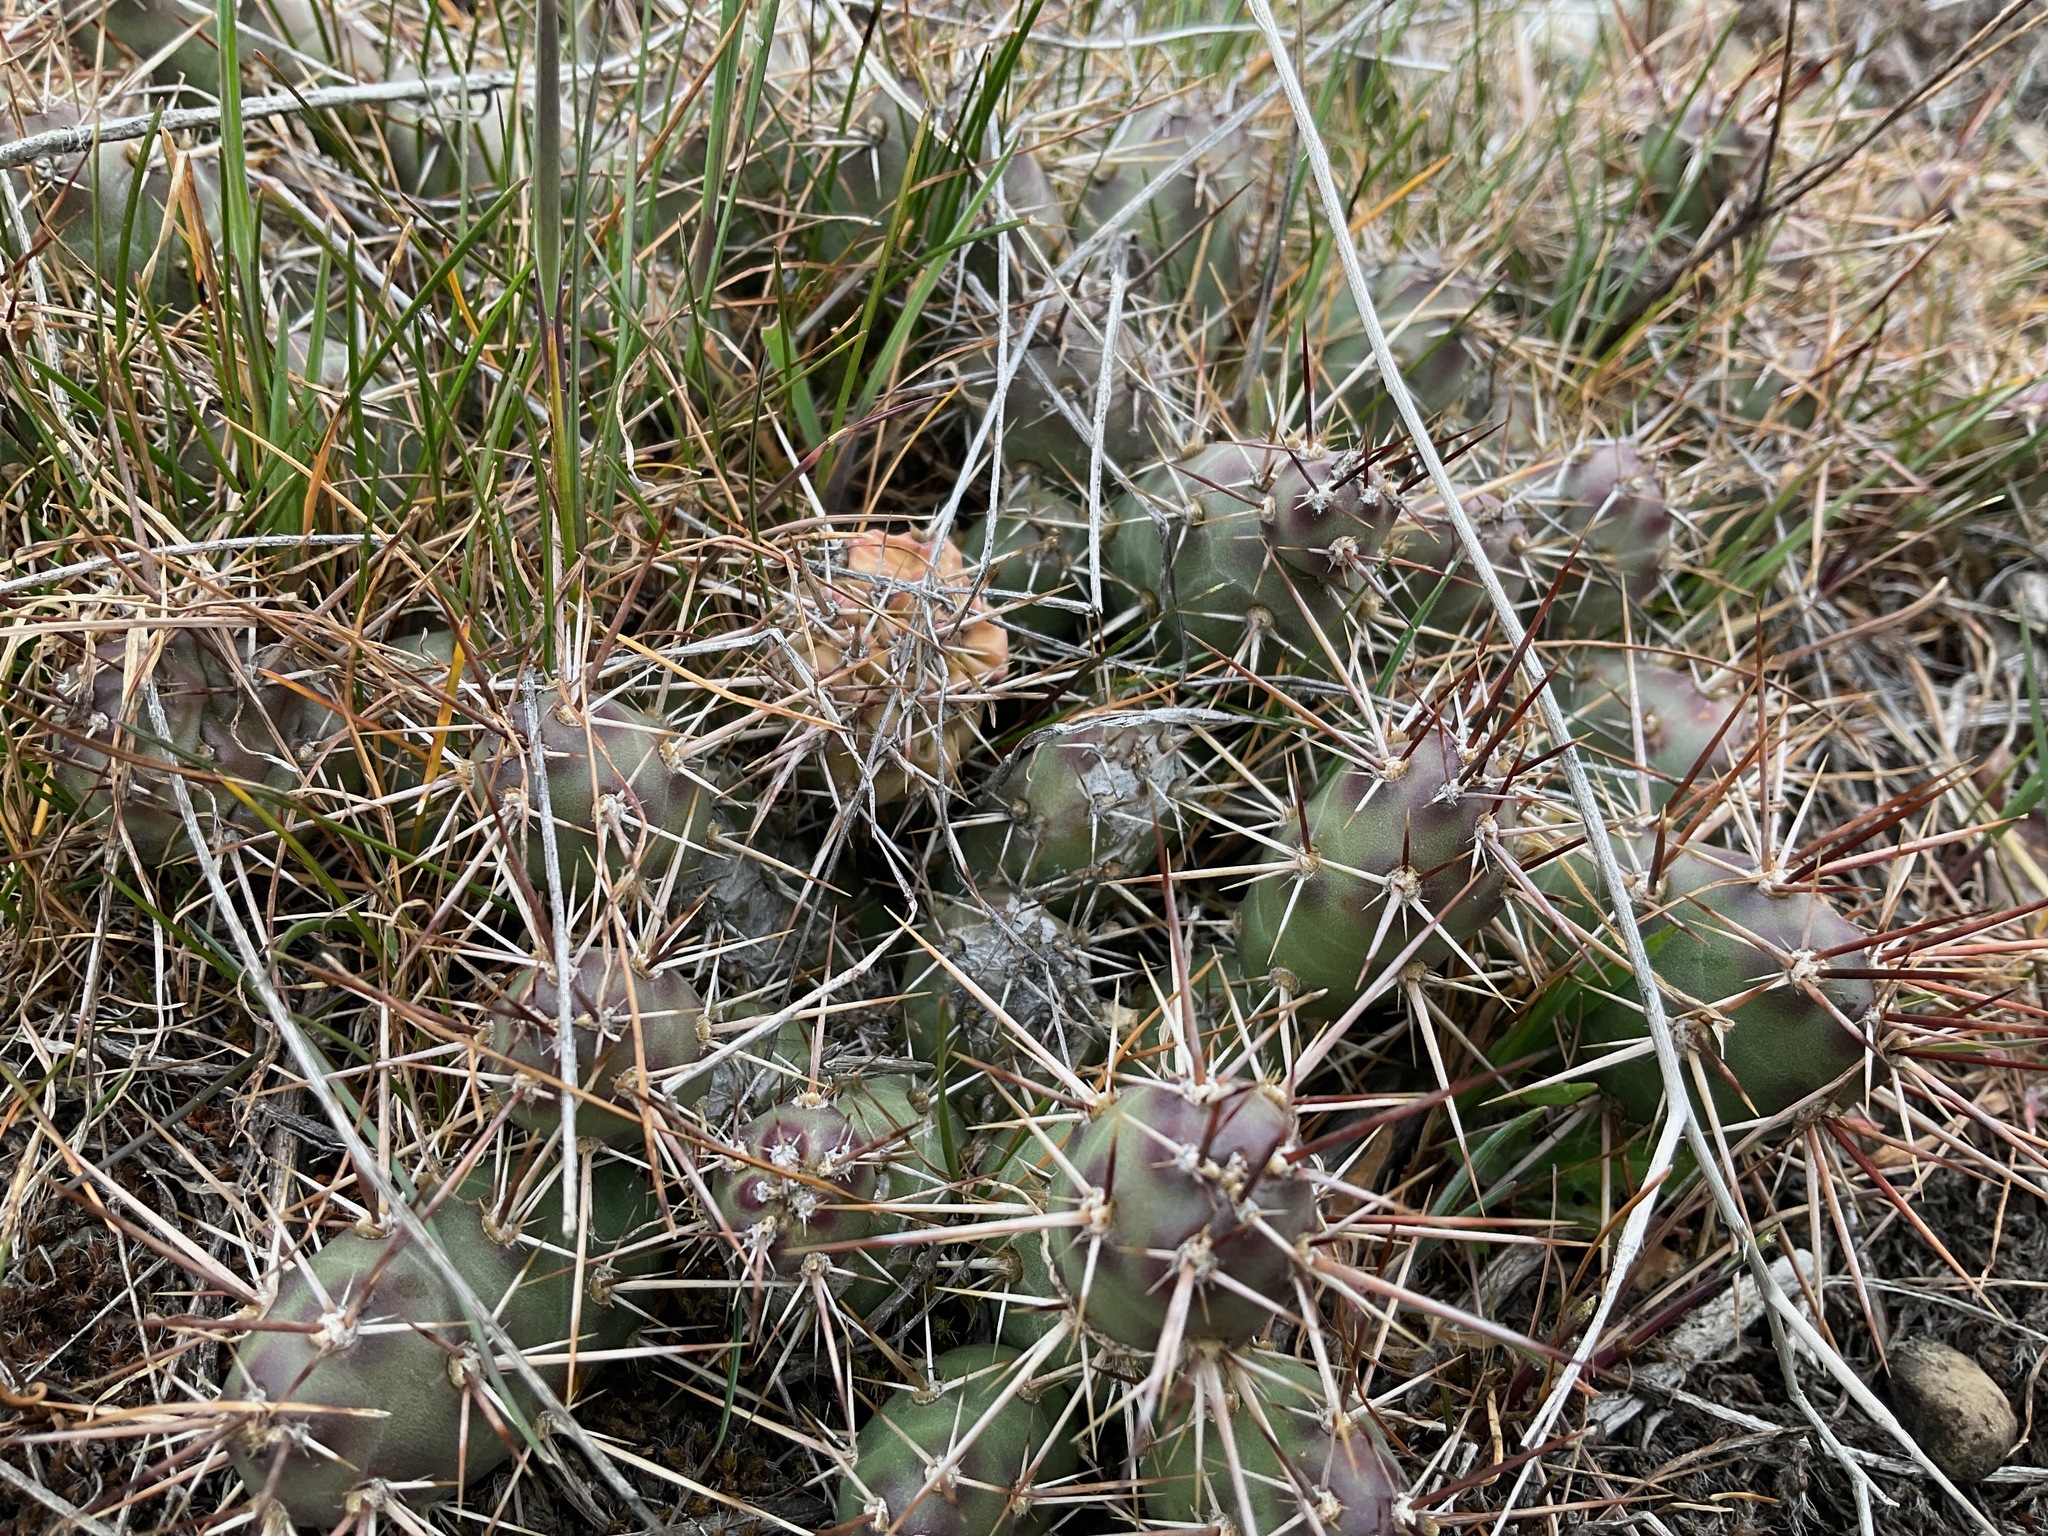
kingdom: Plantae
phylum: Tracheophyta
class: Magnoliopsida
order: Caryophyllales
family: Cactaceae
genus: Opuntia
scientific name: Opuntia fragilis
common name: Brittle cactus
